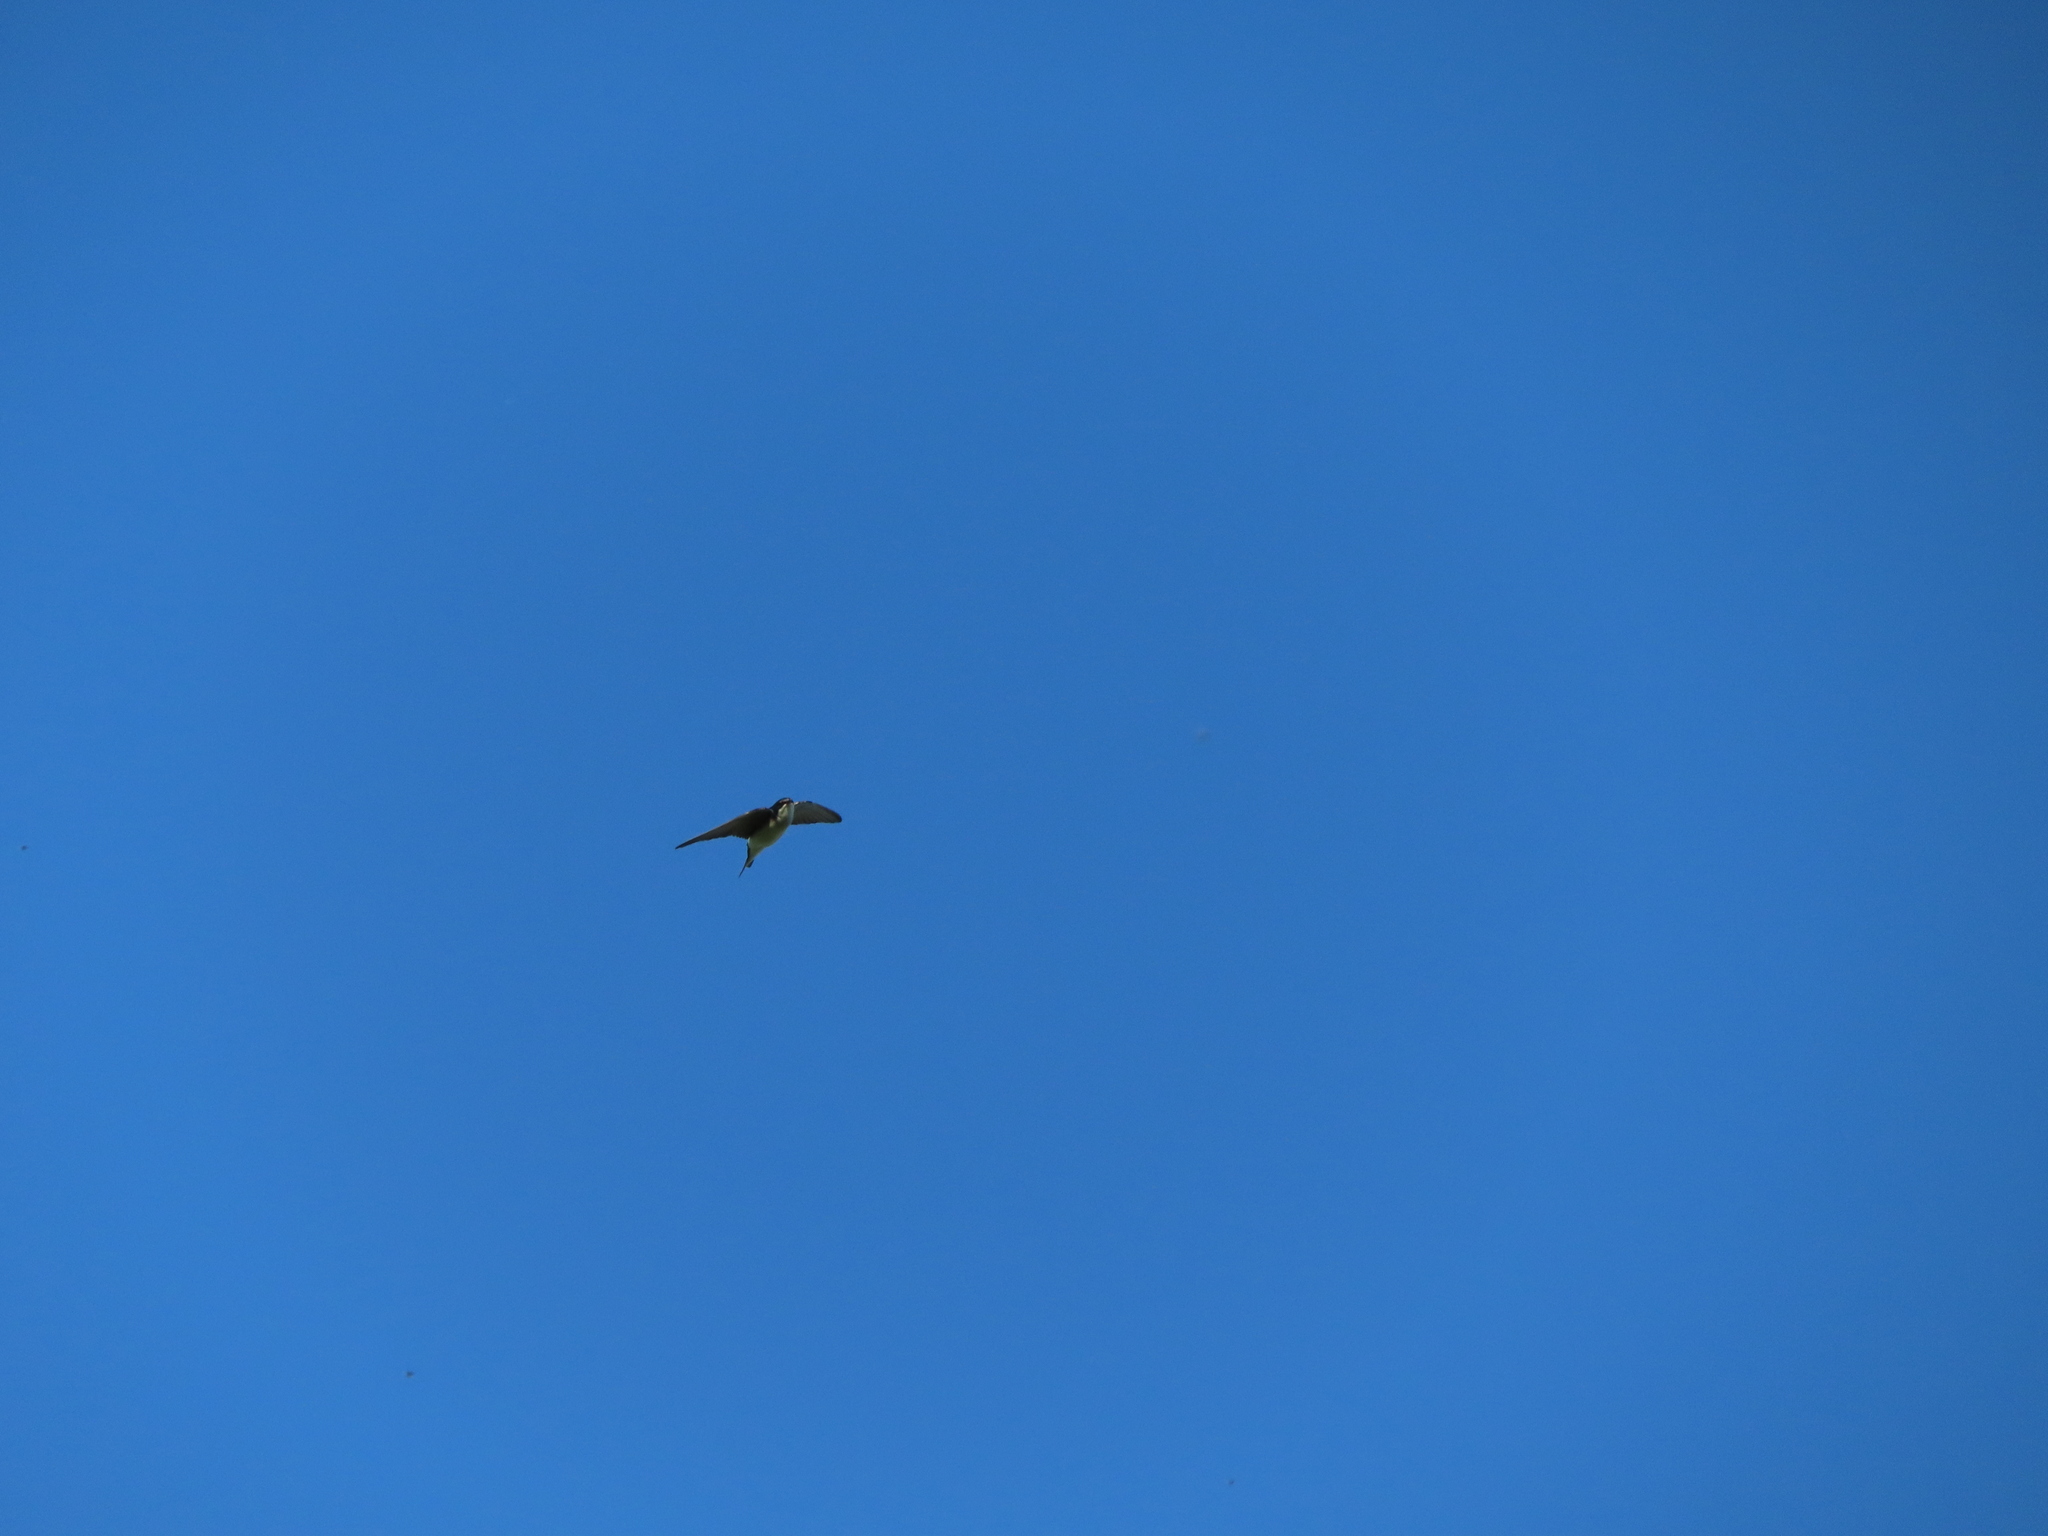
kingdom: Animalia
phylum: Chordata
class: Aves
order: Passeriformes
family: Hirundinidae
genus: Tachycineta
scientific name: Tachycineta bicolor
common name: Tree swallow
